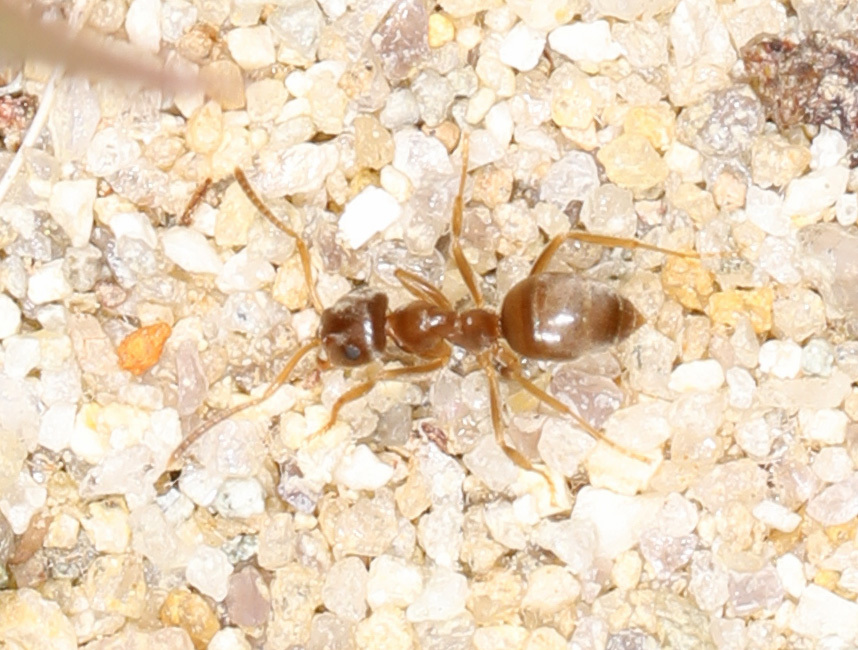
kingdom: Animalia
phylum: Arthropoda
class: Insecta
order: Hymenoptera
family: Formicidae
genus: Lasius
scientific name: Lasius neoniger
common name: Turfgrass ant
